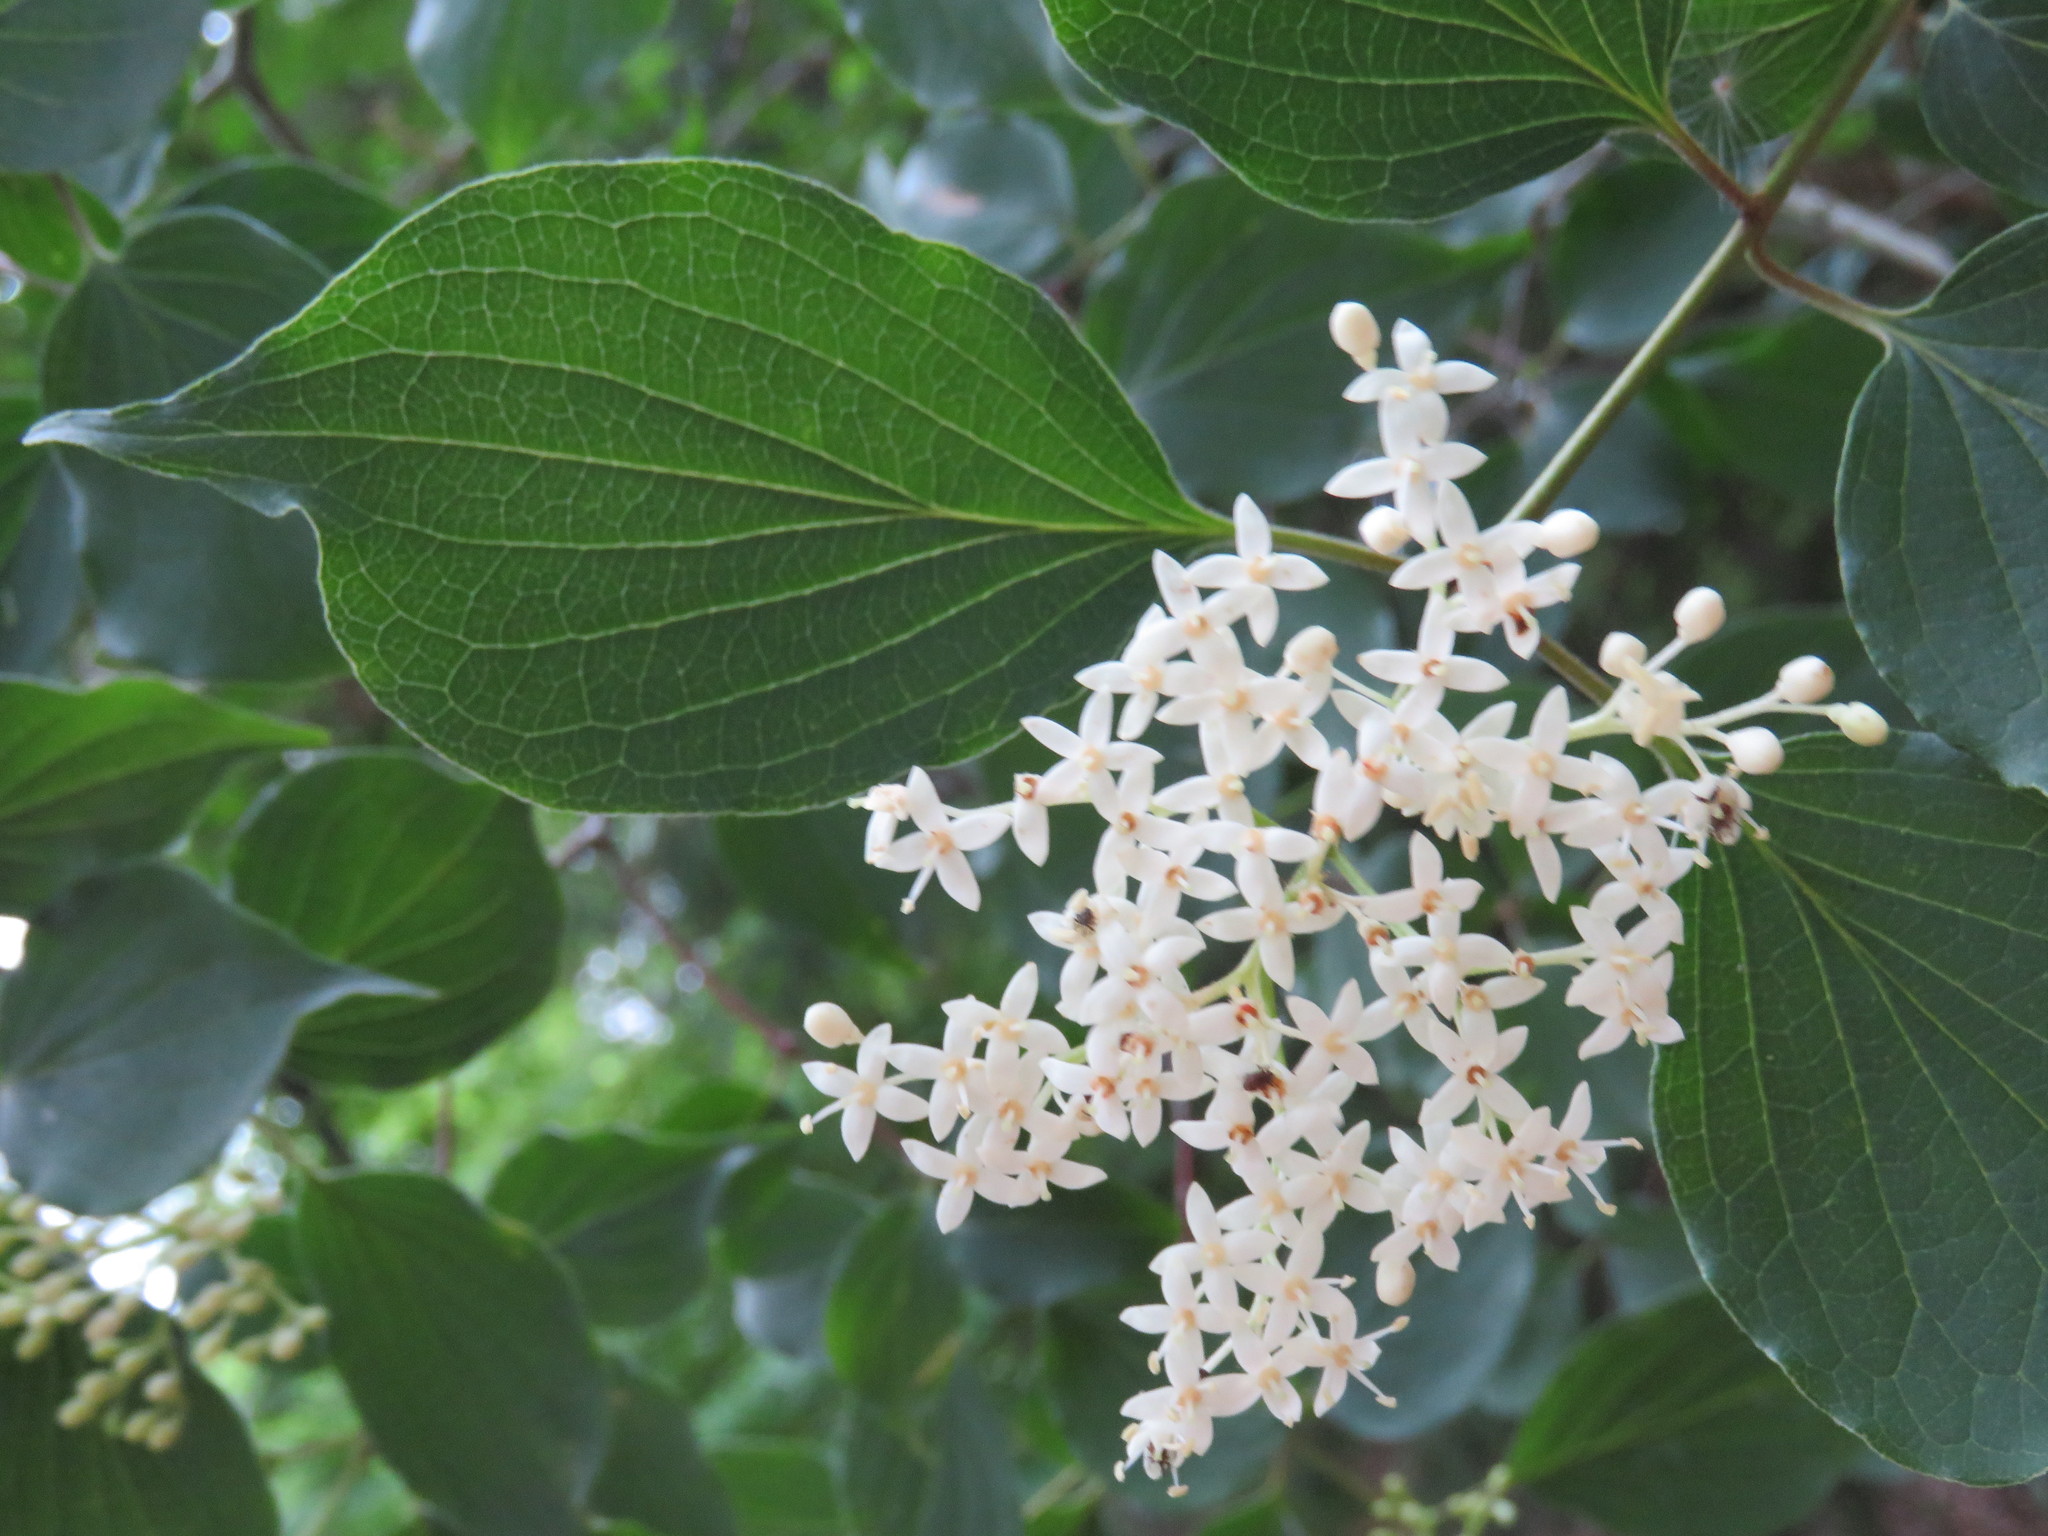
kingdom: Plantae
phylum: Tracheophyta
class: Magnoliopsida
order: Cornales
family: Cornaceae
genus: Cornus
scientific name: Cornus drummondii
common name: Rough-leaf dogwood
